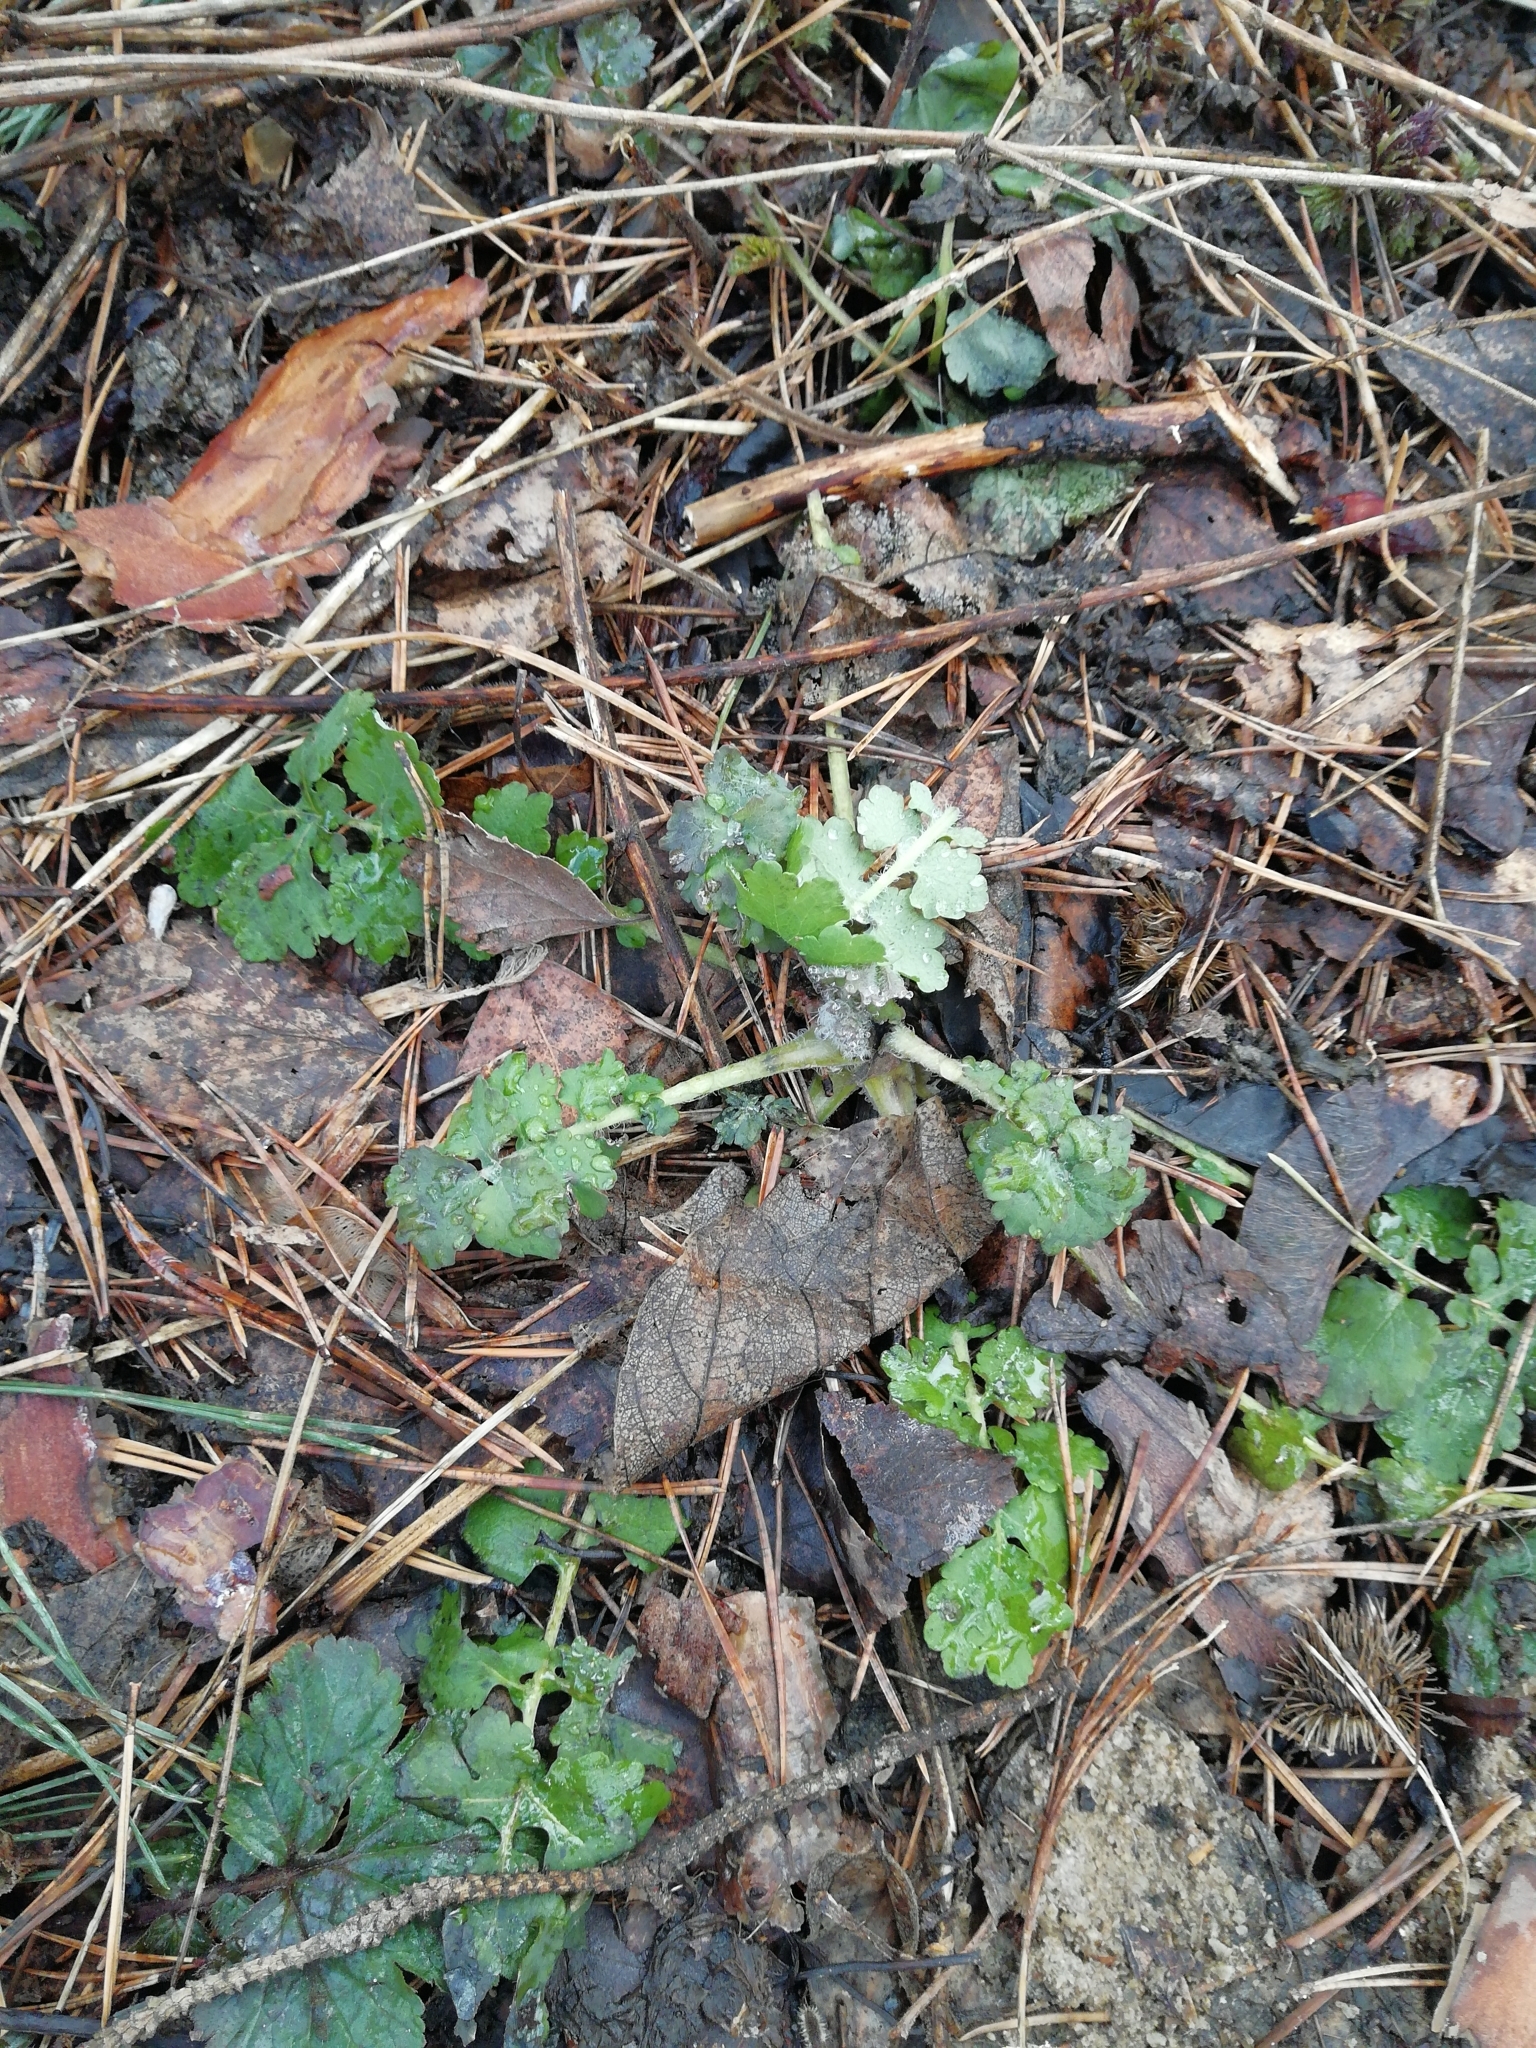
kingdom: Plantae
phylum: Tracheophyta
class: Magnoliopsida
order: Ranunculales
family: Papaveraceae
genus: Chelidonium
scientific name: Chelidonium majus
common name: Greater celandine
